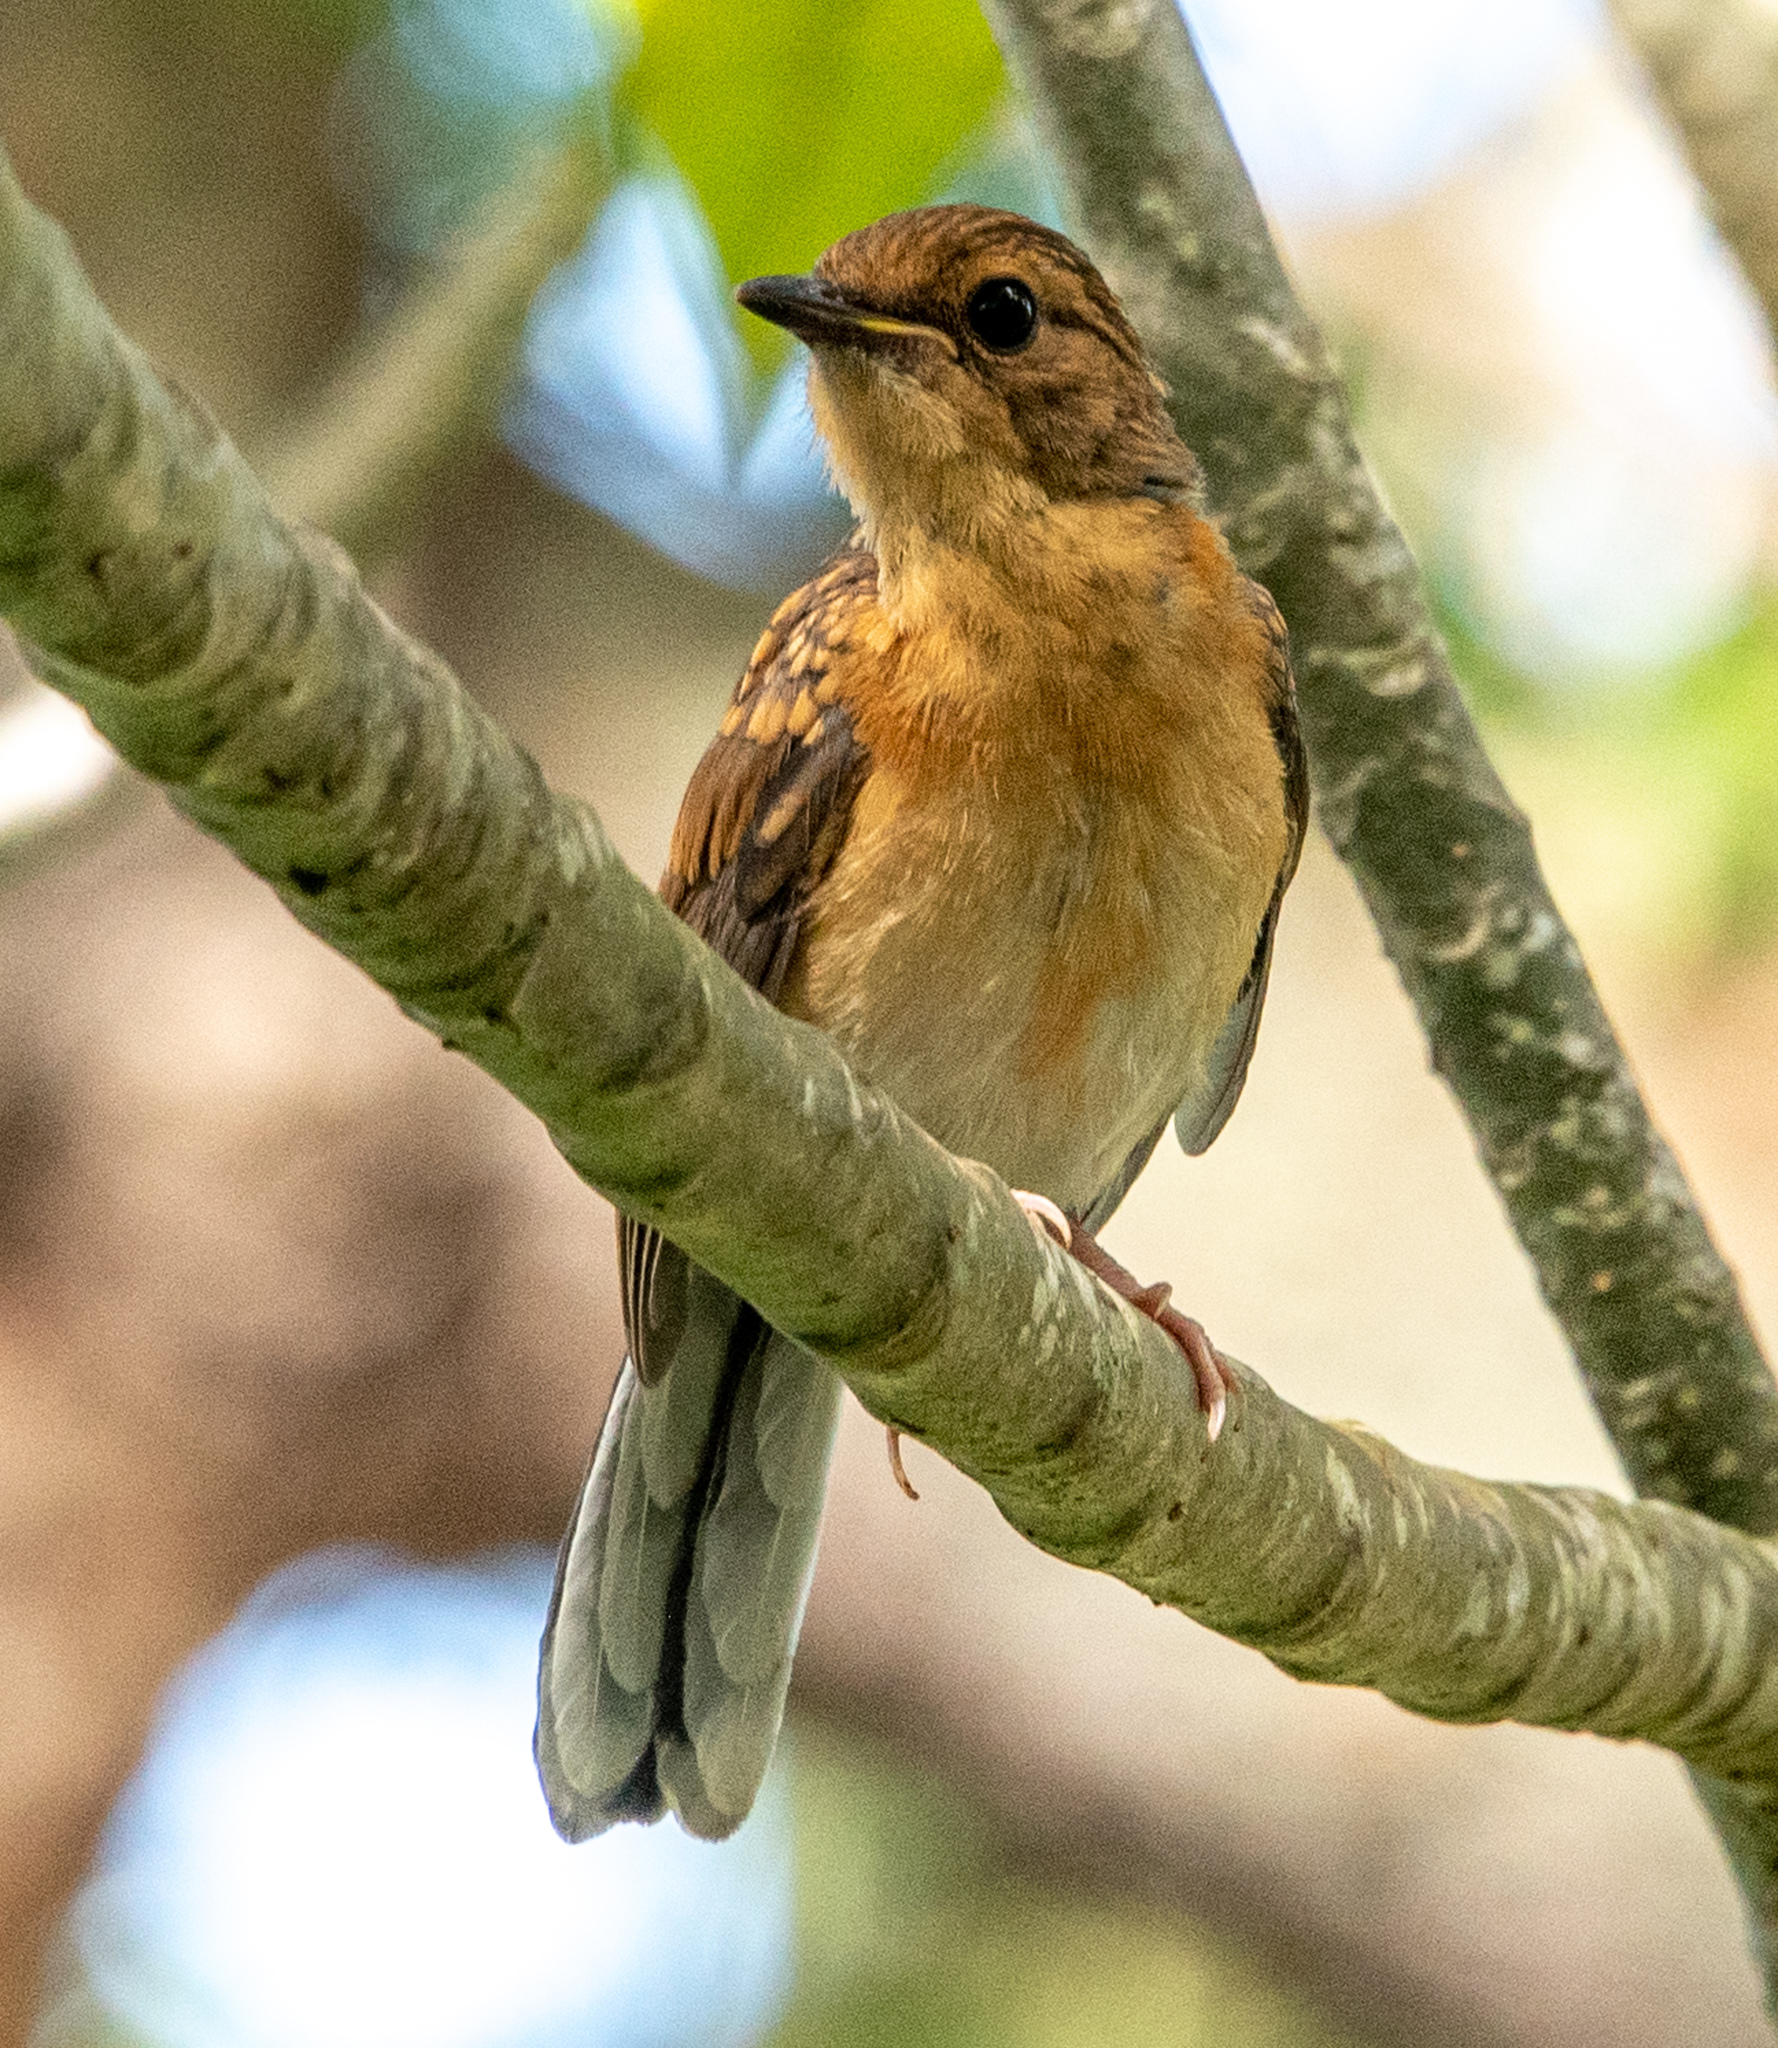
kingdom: Animalia
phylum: Chordata
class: Aves
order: Passeriformes
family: Muscicapidae
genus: Copsychus
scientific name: Copsychus malabaricus
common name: White-rumped shama
